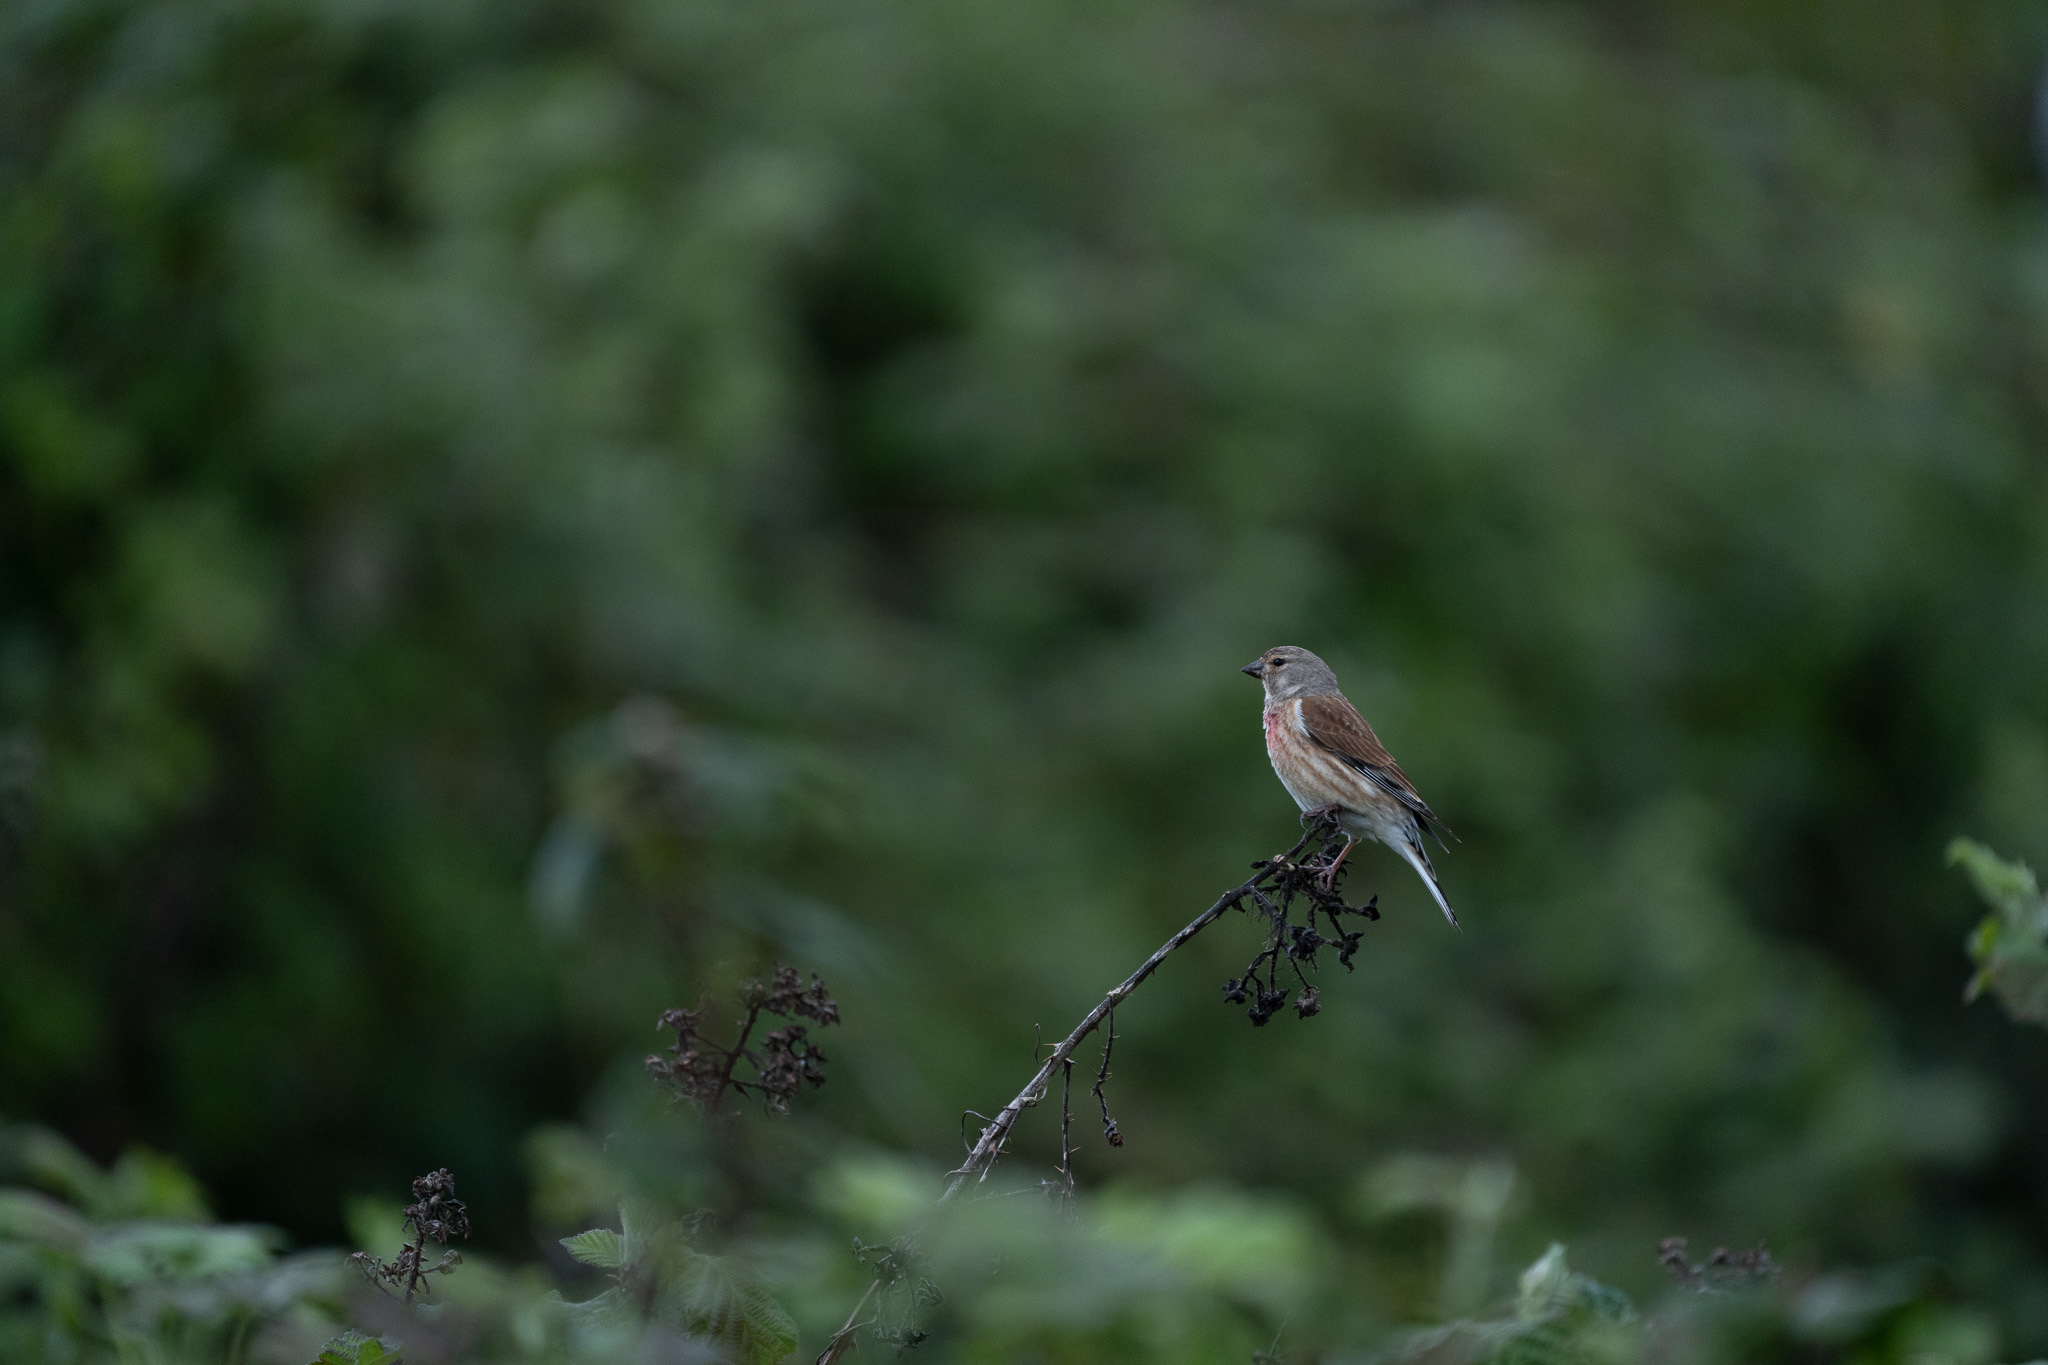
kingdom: Animalia
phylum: Chordata
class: Aves
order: Passeriformes
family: Fringillidae
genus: Linaria
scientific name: Linaria cannabina
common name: Common linnet
